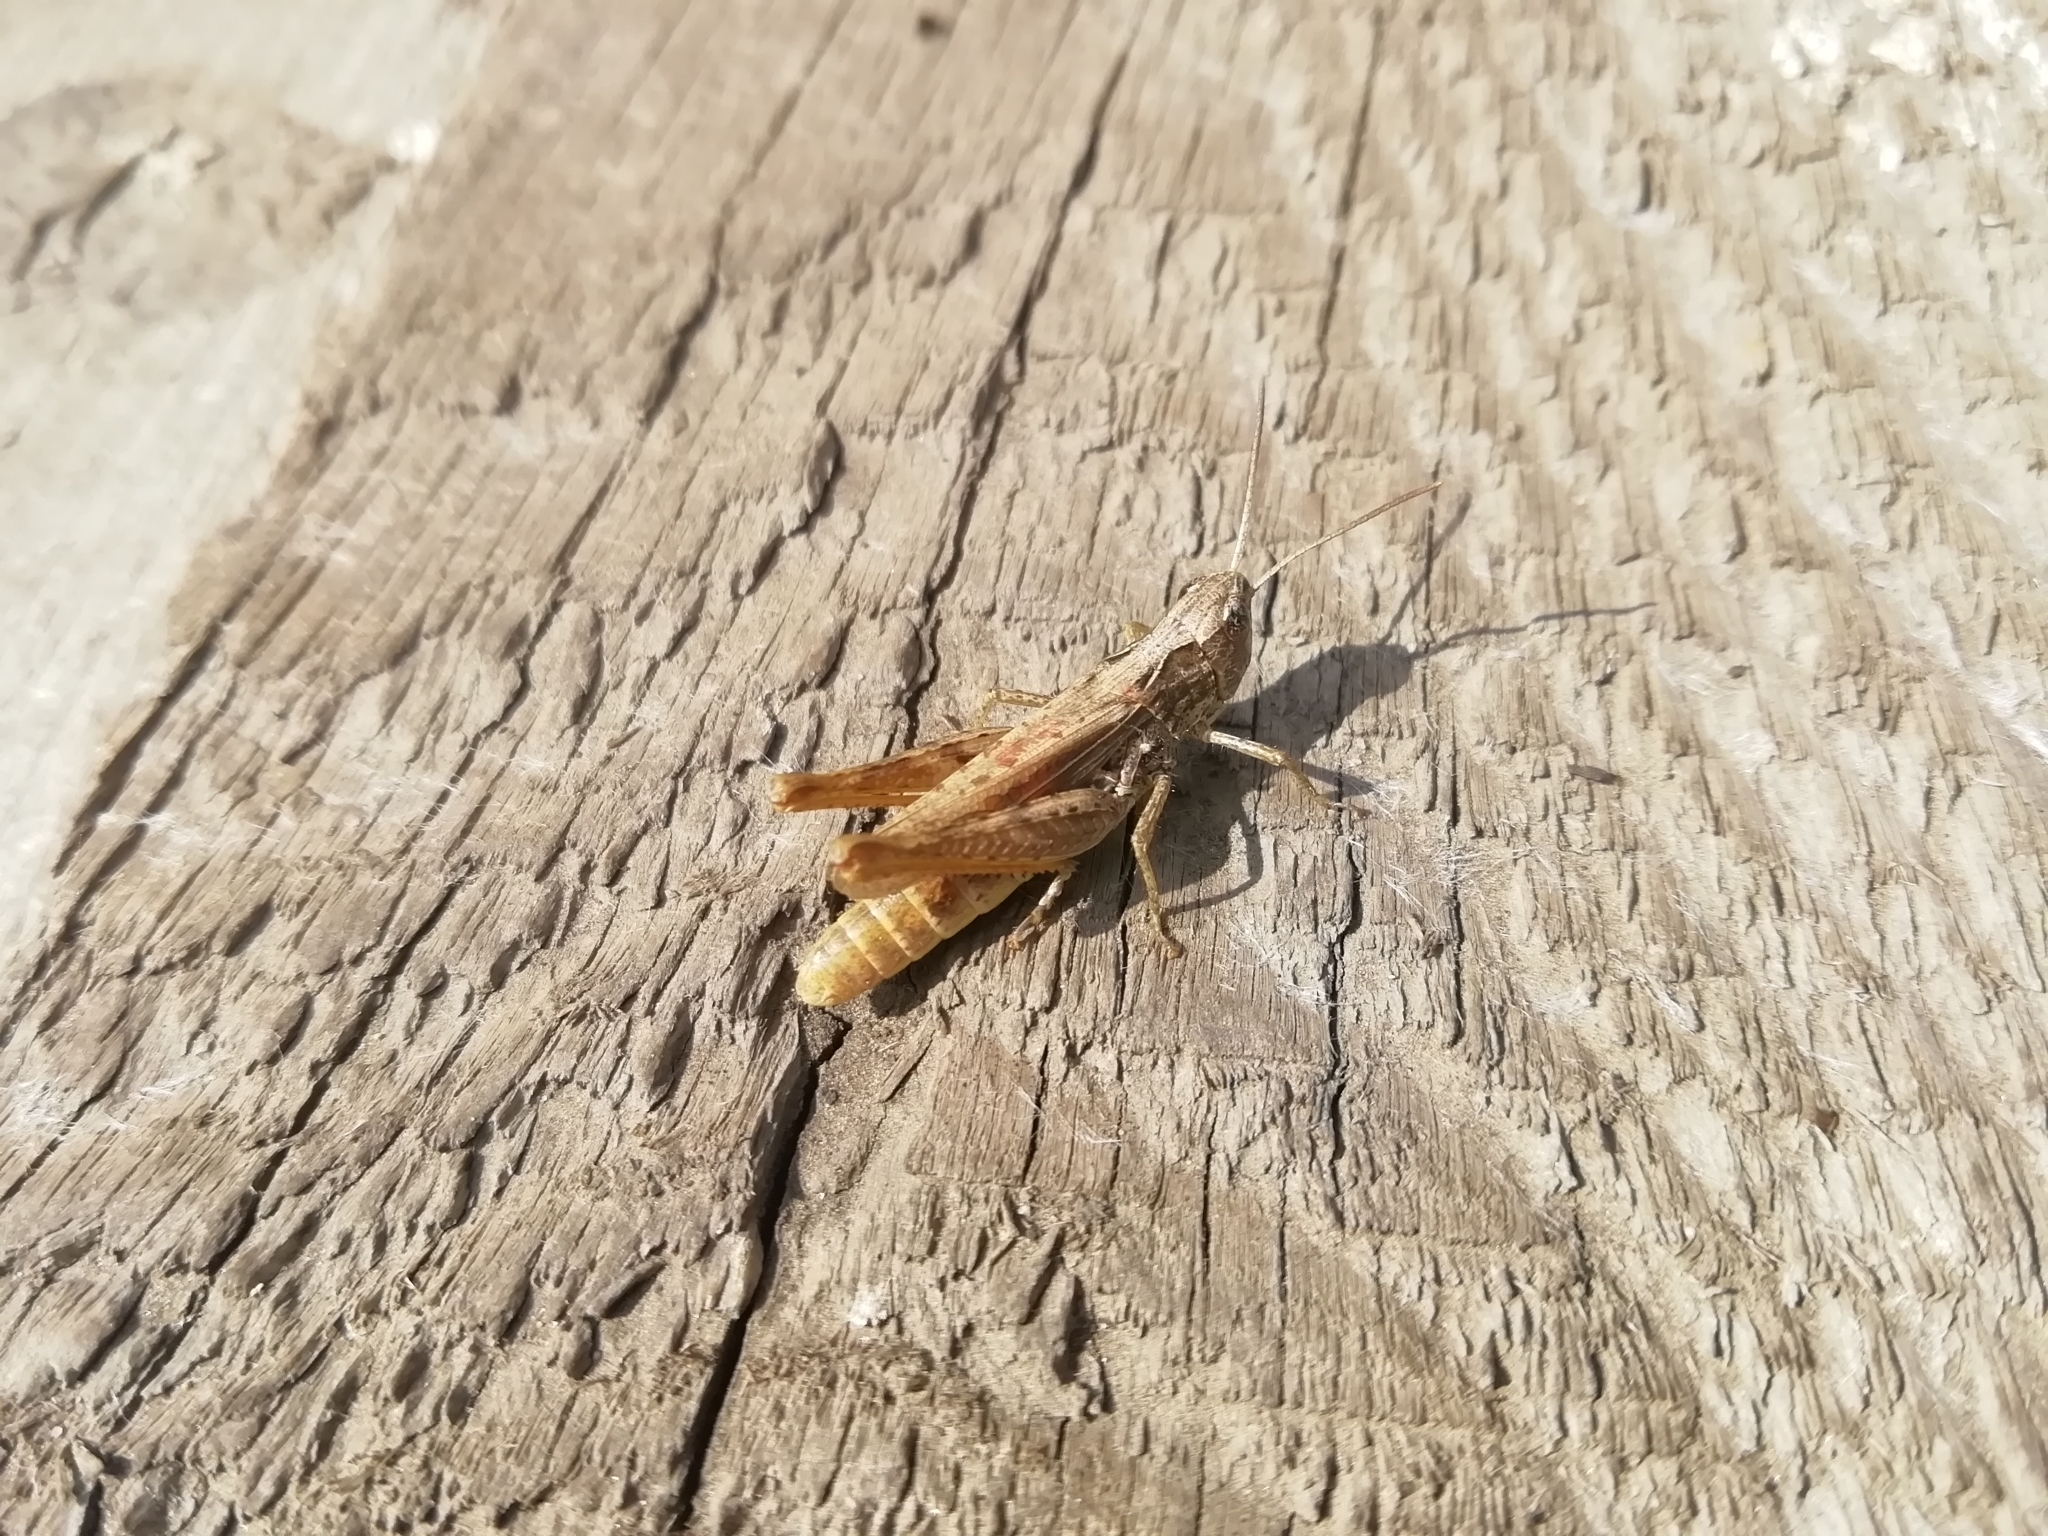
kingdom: Animalia
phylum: Arthropoda
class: Insecta
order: Orthoptera
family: Acrididae
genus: Chorthippus
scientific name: Chorthippus apricarius
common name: Upland field grasshopper
